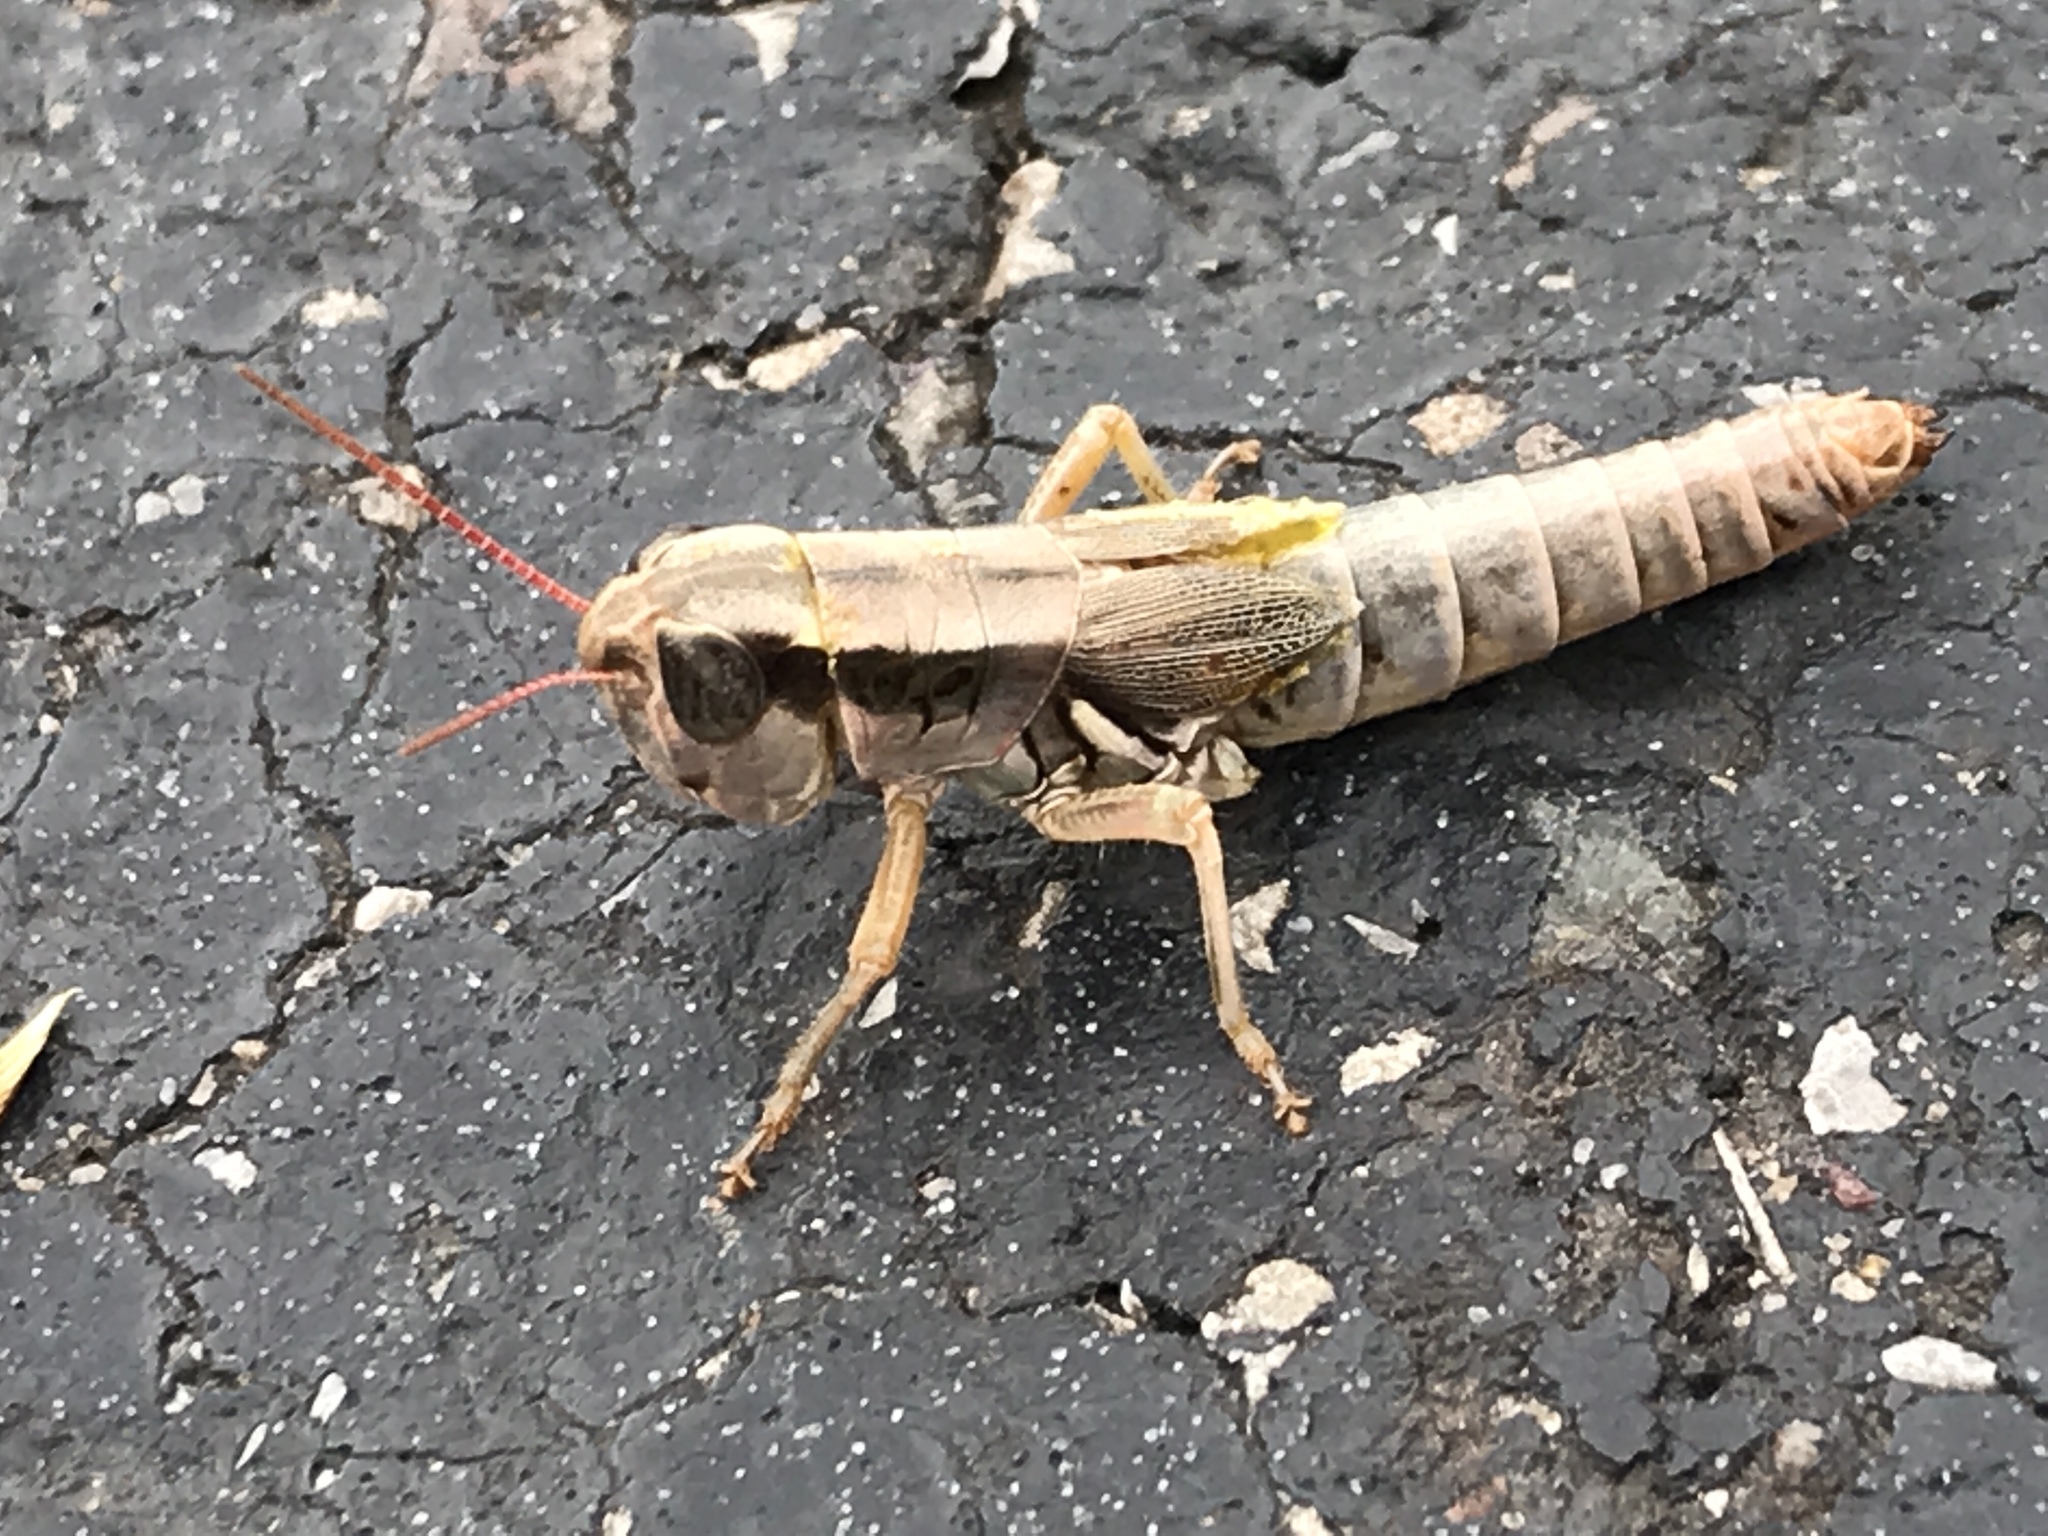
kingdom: Animalia
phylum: Arthropoda
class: Insecta
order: Orthoptera
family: Acrididae
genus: Phoetaliotes
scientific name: Phoetaliotes nebrascensis
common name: Large-headed grasshopper
